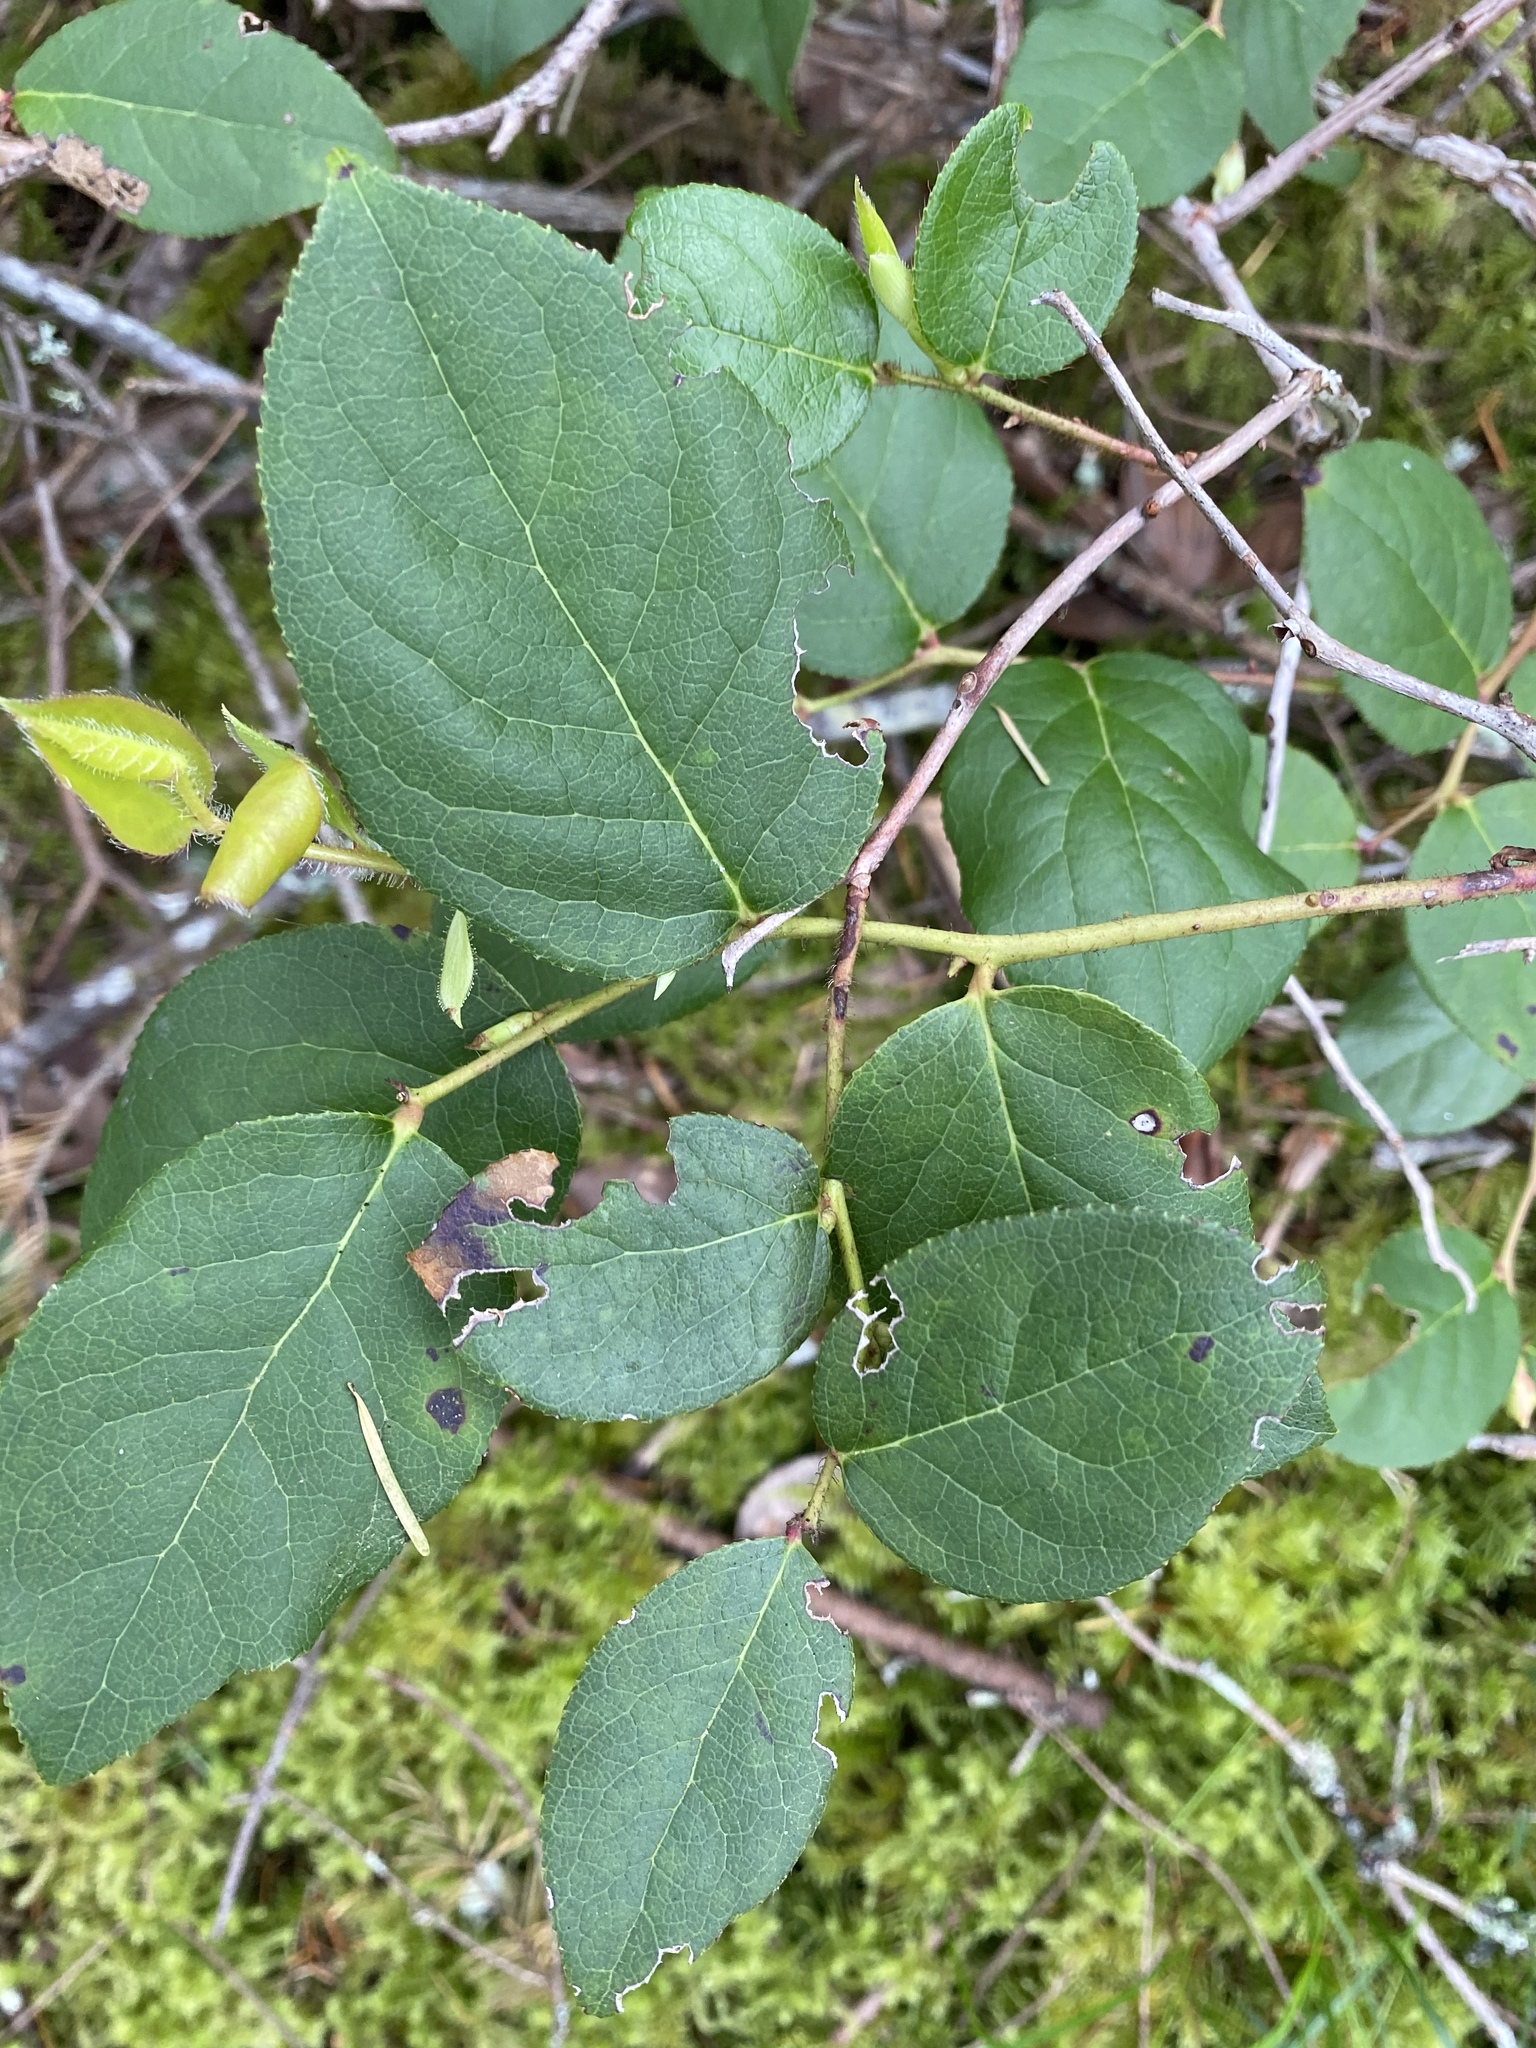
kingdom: Plantae
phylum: Tracheophyta
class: Magnoliopsida
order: Ericales
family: Ericaceae
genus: Gaultheria
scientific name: Gaultheria shallon
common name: Shallon
